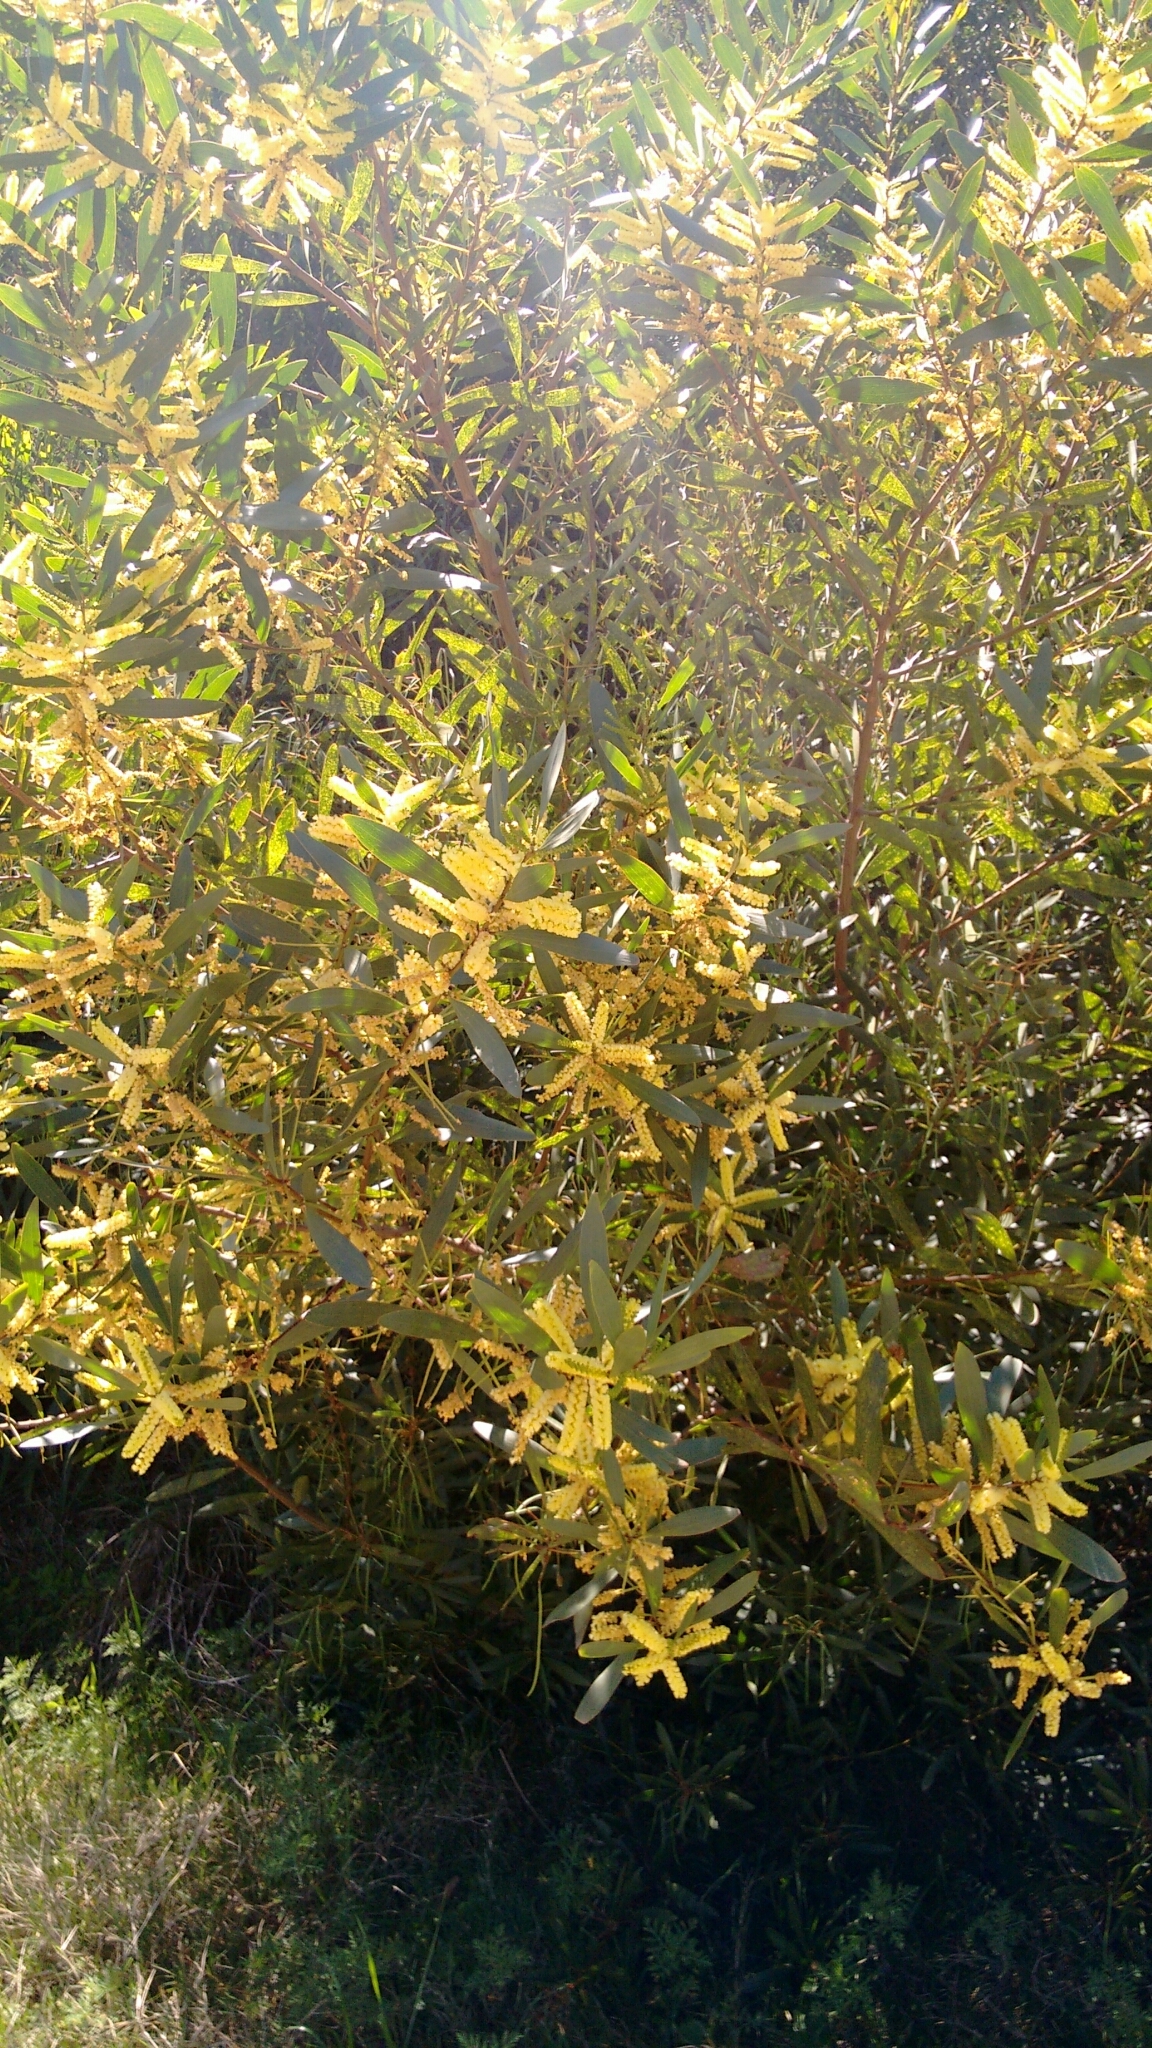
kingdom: Plantae
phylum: Tracheophyta
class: Magnoliopsida
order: Fabales
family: Fabaceae
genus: Acacia
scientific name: Acacia longifolia
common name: Sydney golden wattle
